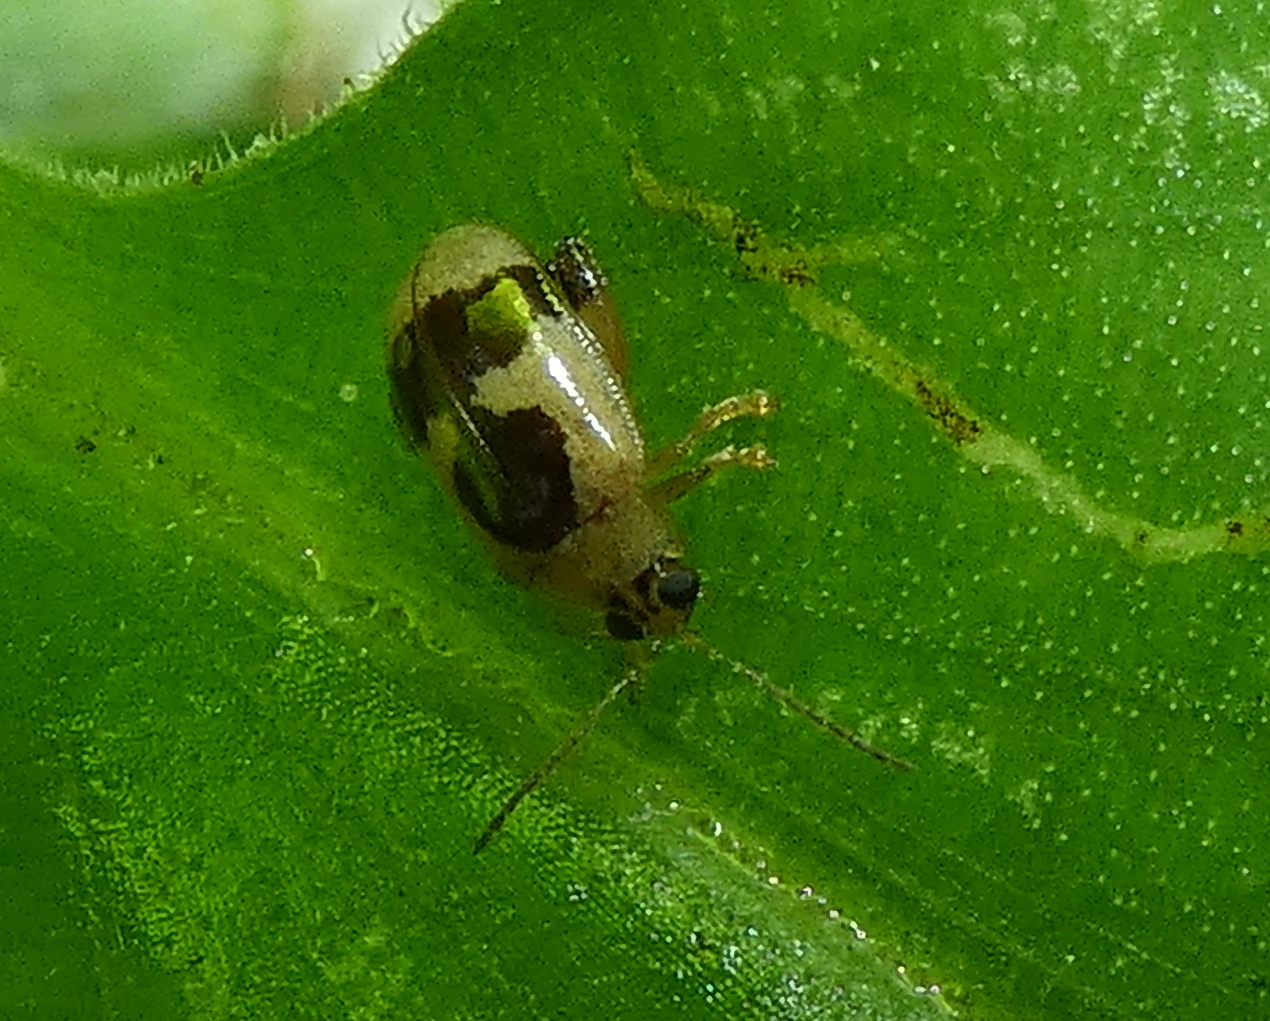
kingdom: Animalia
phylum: Arthropoda
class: Insecta
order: Coleoptera
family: Chrysomelidae
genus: Alagoasa
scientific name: Alagoasa
